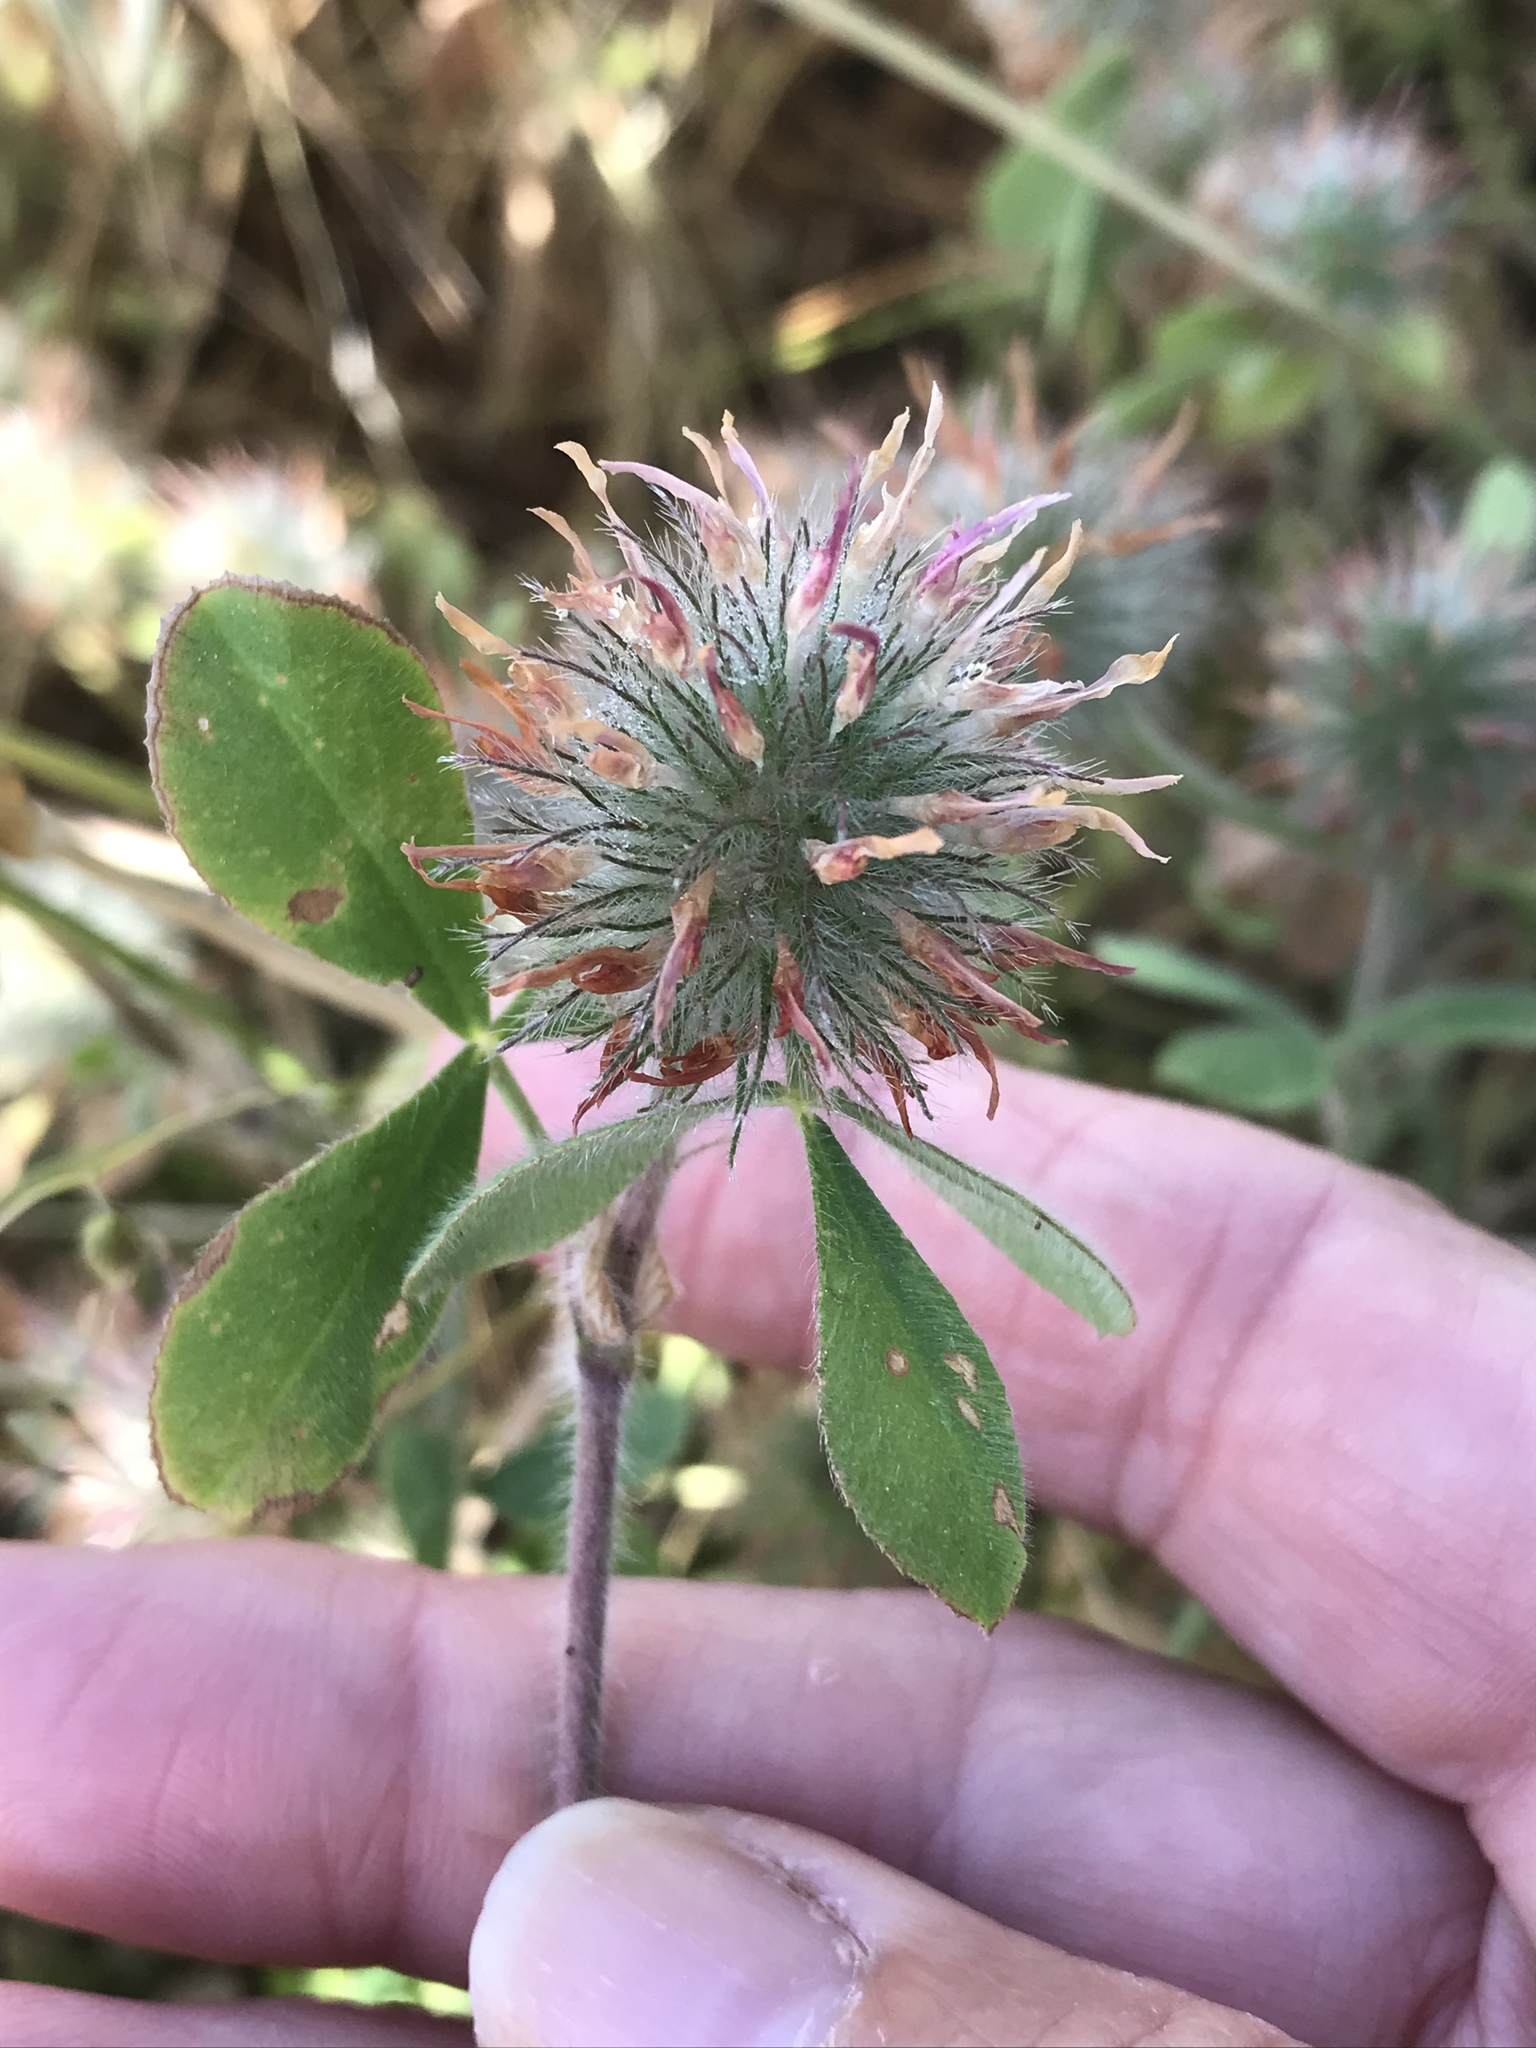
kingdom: Plantae
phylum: Tracheophyta
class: Magnoliopsida
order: Fabales
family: Fabaceae
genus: Trifolium
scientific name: Trifolium hirtum
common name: Rose clover
